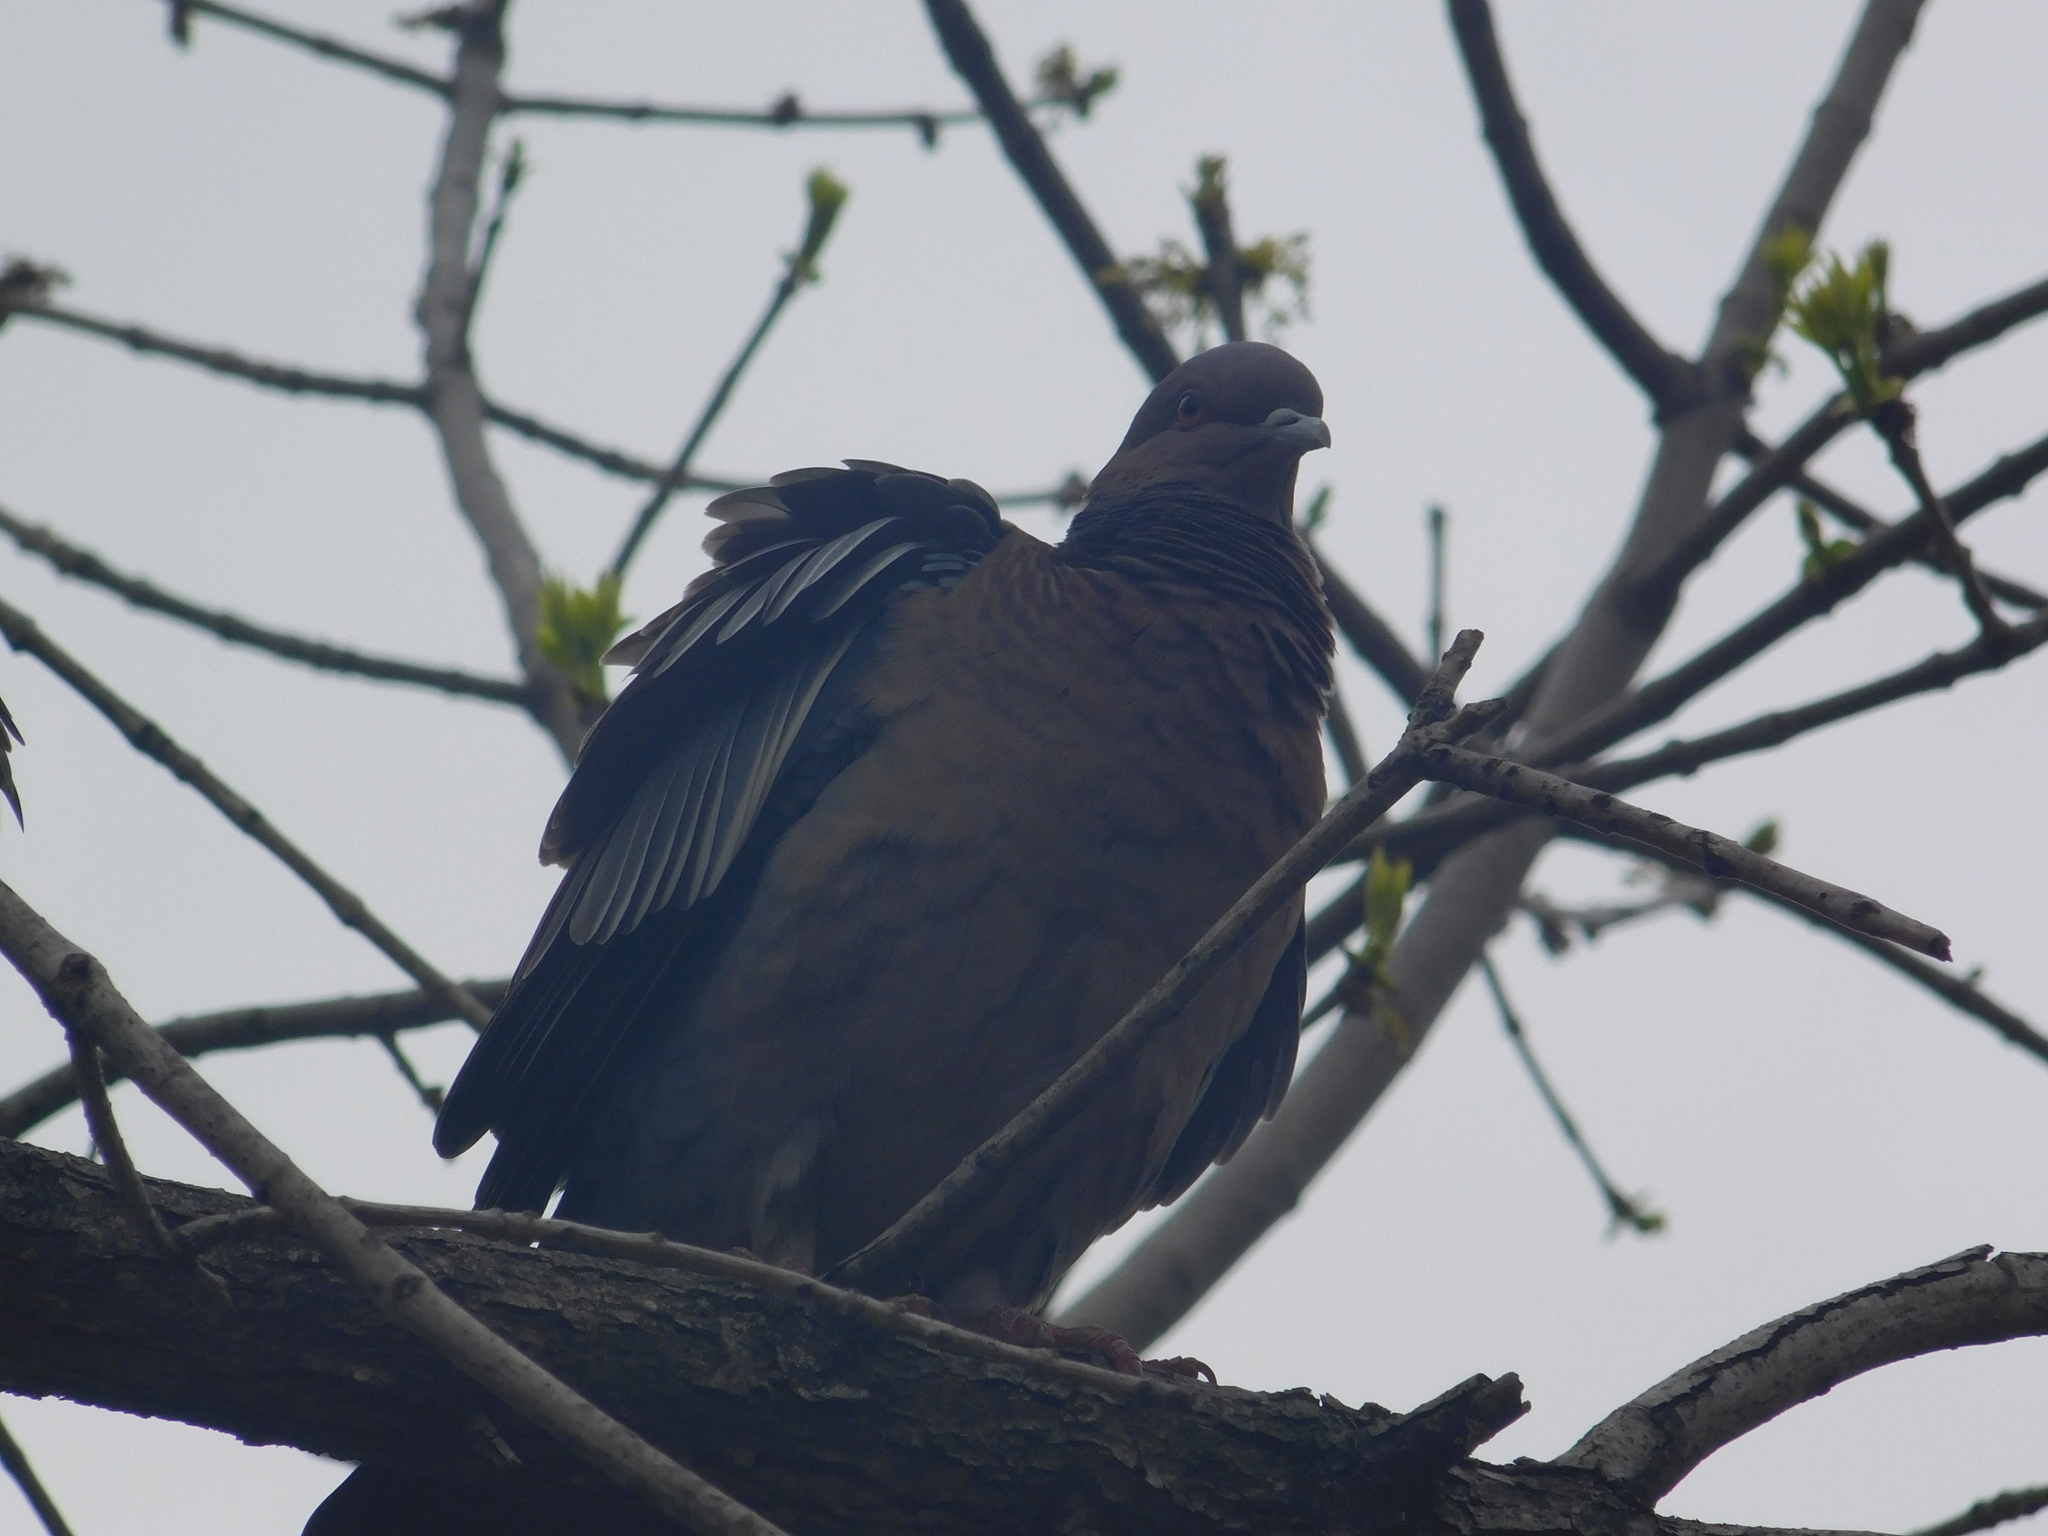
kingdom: Animalia
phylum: Chordata
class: Aves
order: Columbiformes
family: Columbidae
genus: Patagioenas
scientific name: Patagioenas picazuro
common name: Picazuro pigeon
